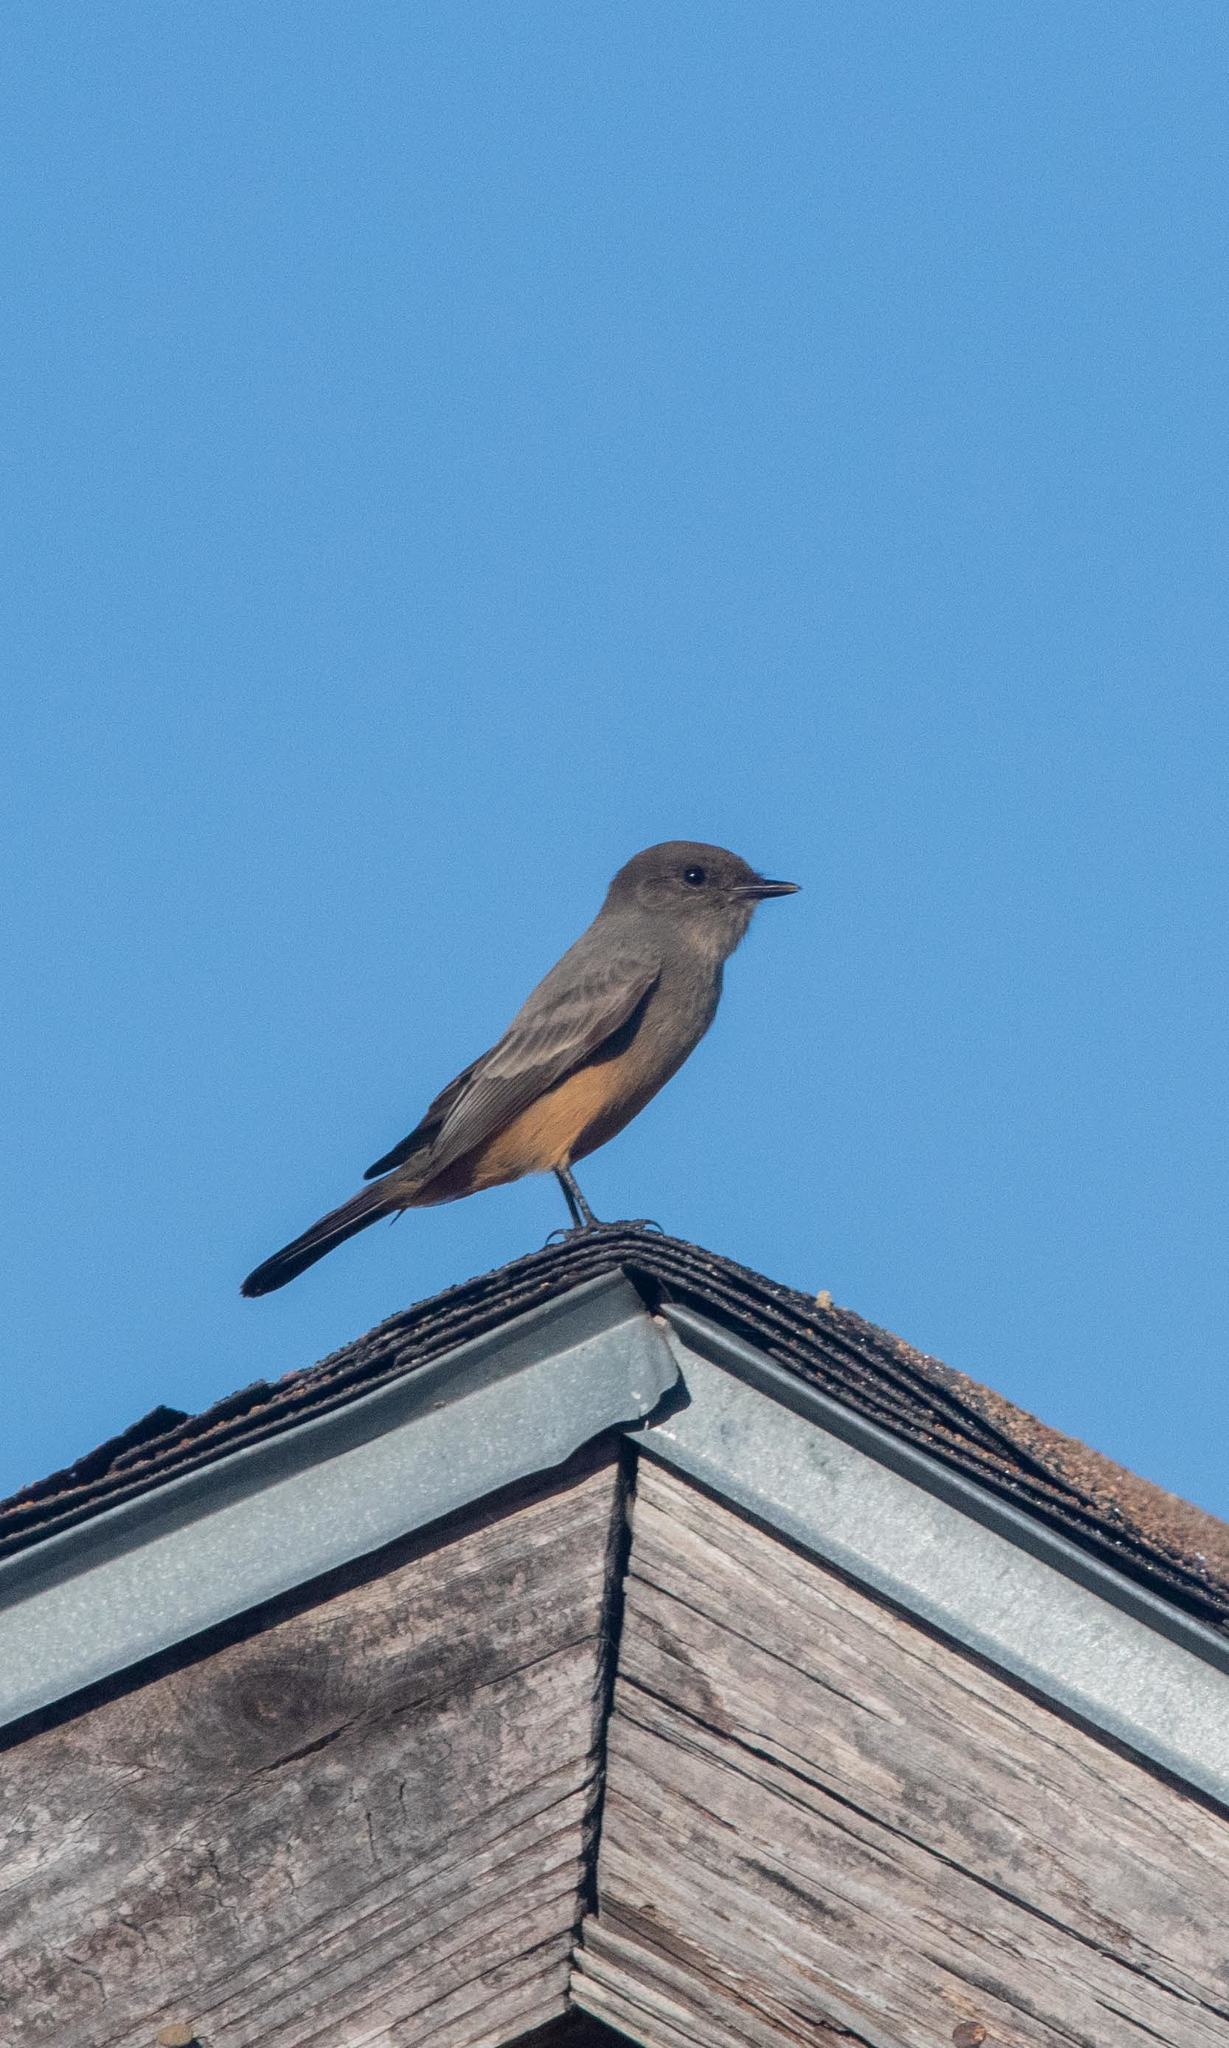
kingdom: Animalia
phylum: Chordata
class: Aves
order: Passeriformes
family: Tyrannidae
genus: Sayornis
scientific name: Sayornis saya
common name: Say's phoebe
